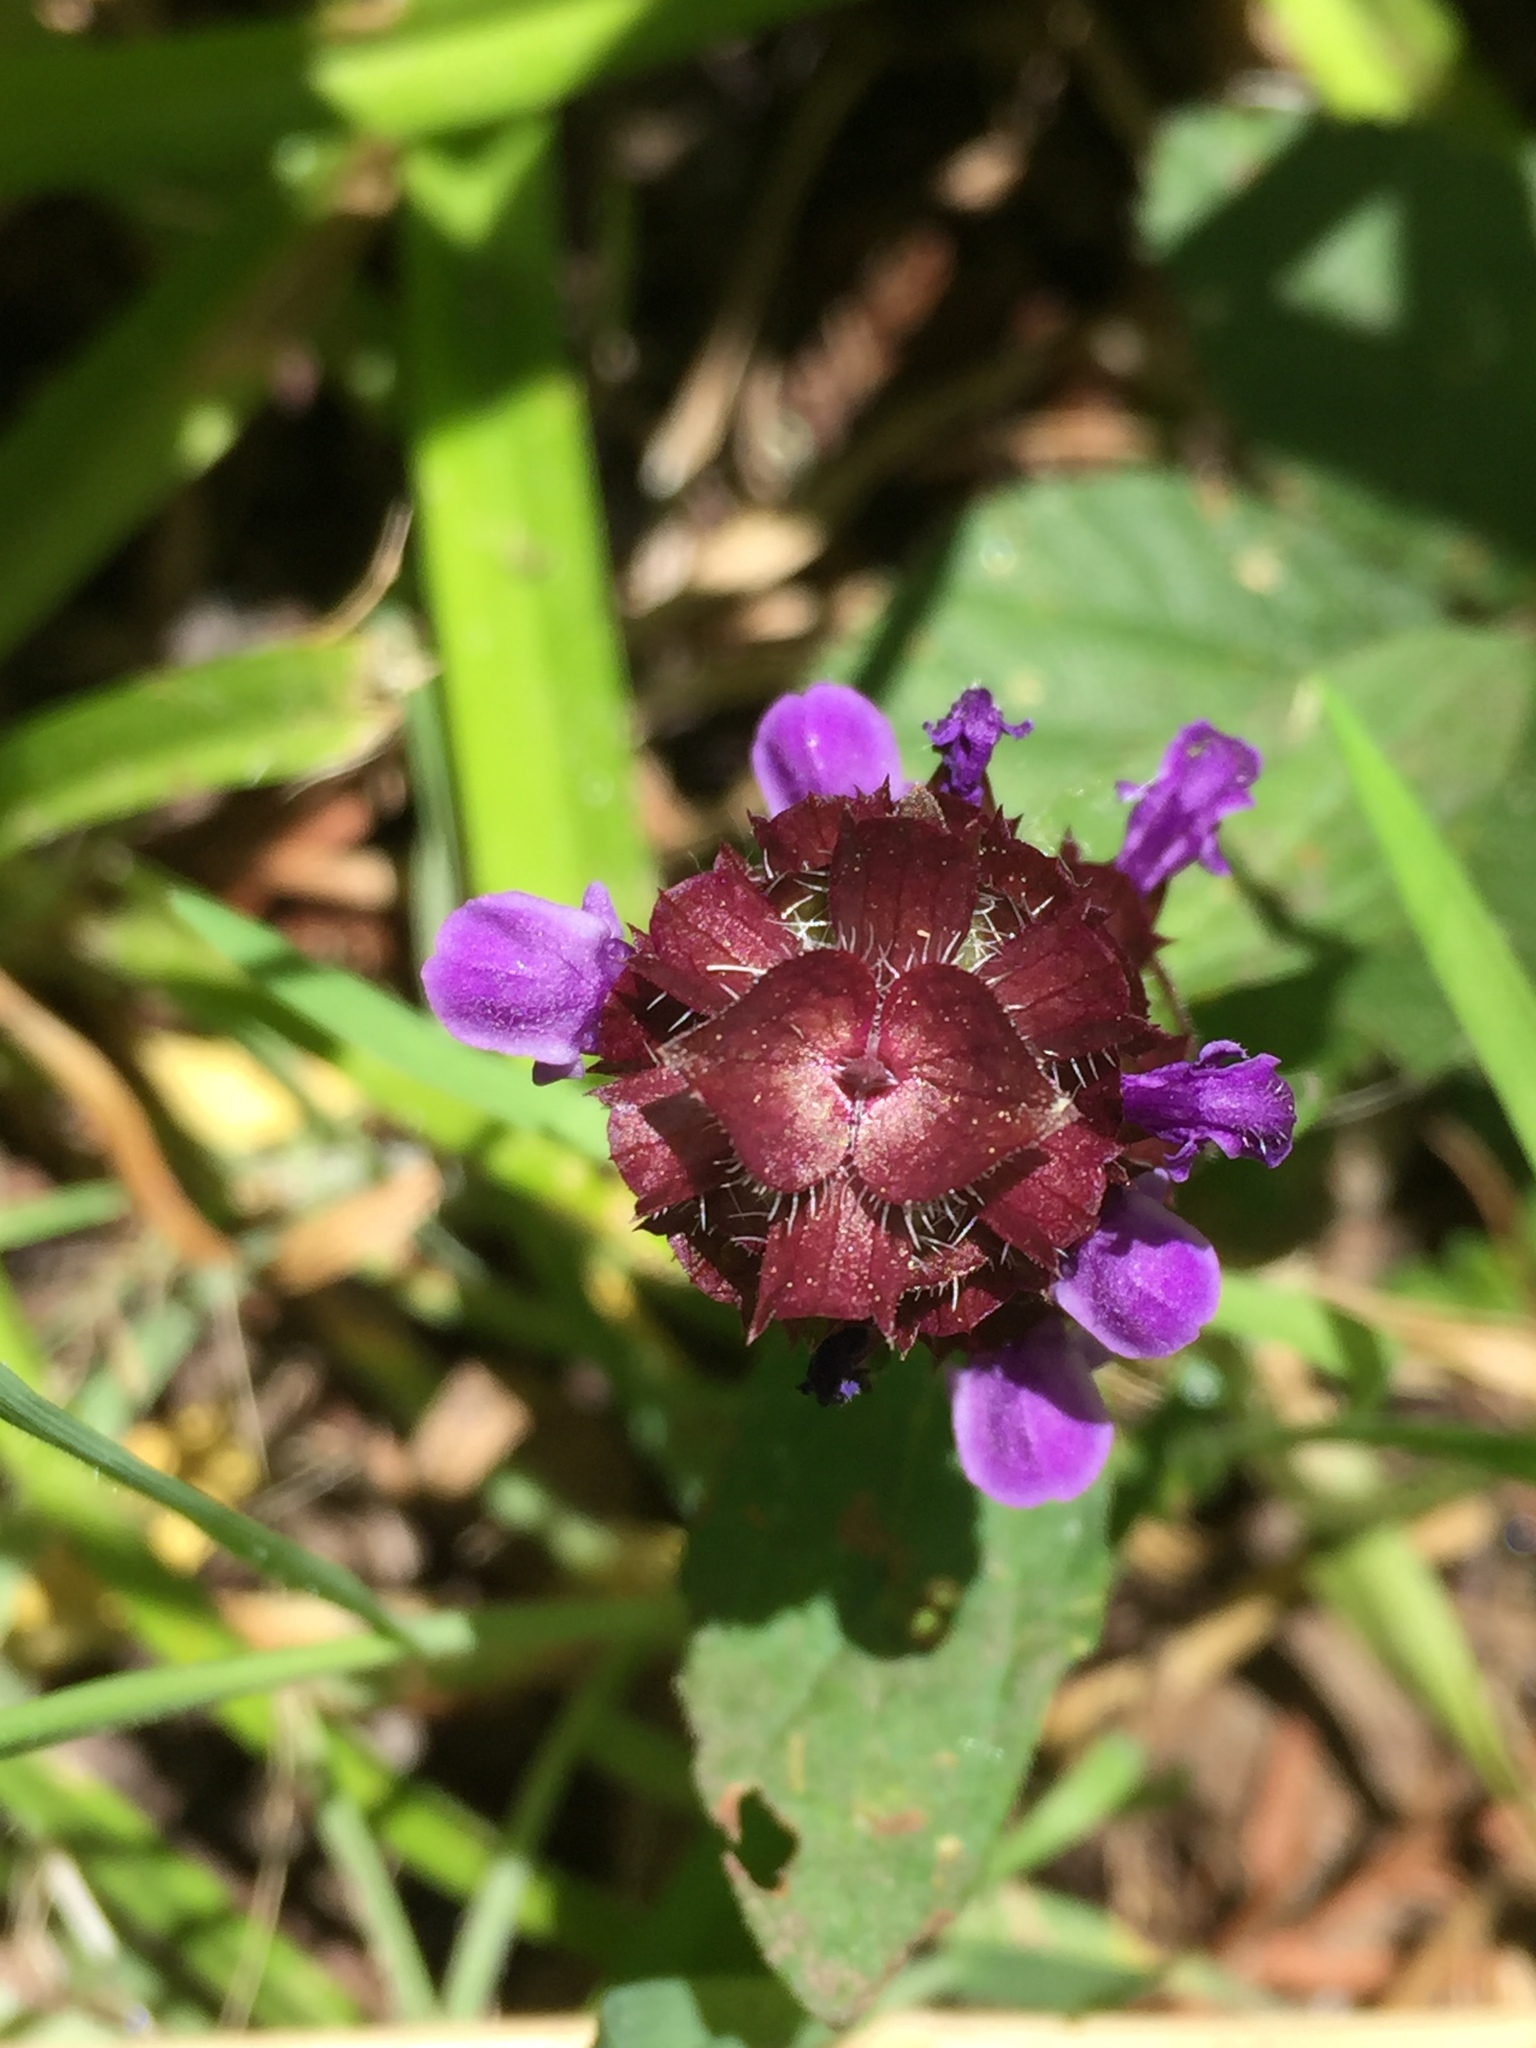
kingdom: Plantae
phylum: Tracheophyta
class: Magnoliopsida
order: Lamiales
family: Lamiaceae
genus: Prunella
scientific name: Prunella vulgaris
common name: Heal-all
